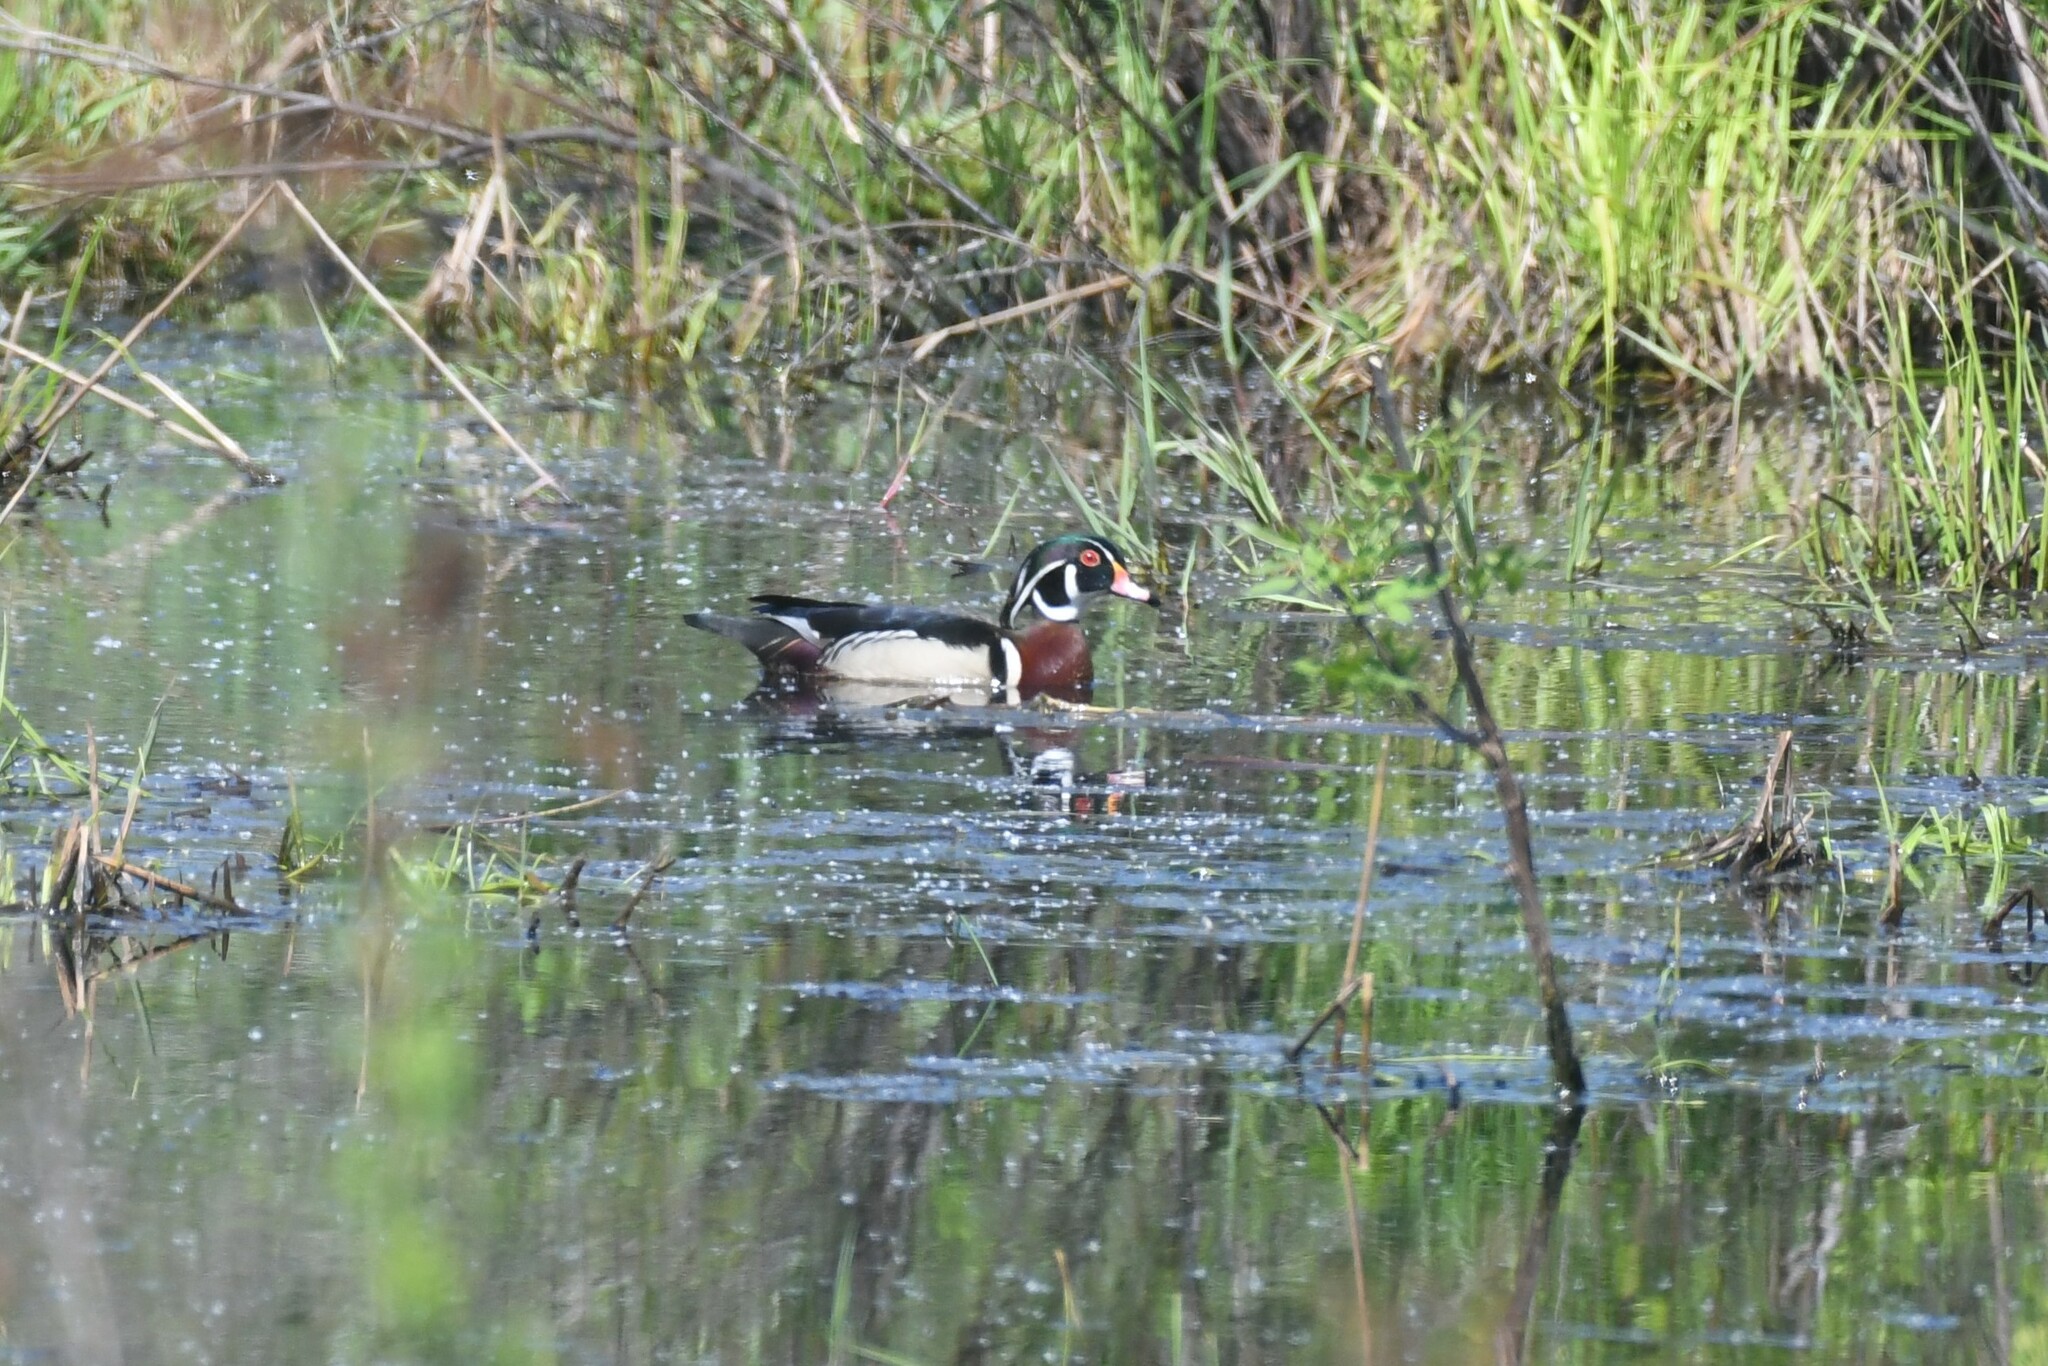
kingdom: Animalia
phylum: Chordata
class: Aves
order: Anseriformes
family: Anatidae
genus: Aix
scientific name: Aix sponsa
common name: Wood duck
